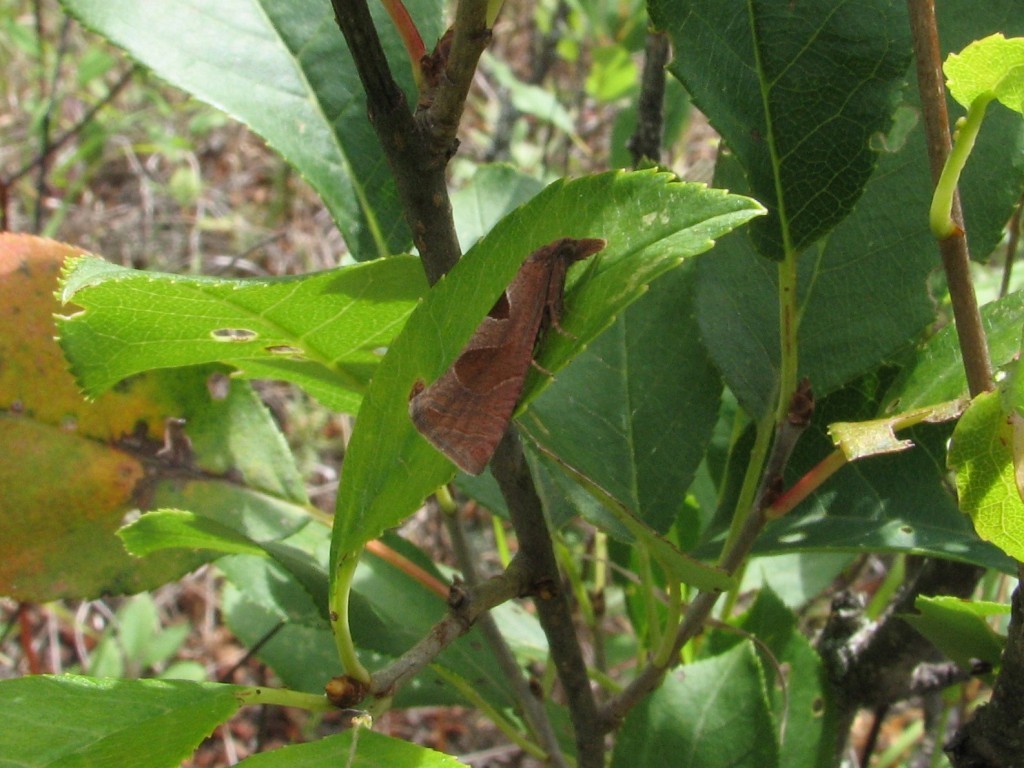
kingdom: Animalia
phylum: Arthropoda
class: Insecta
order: Lepidoptera
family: Tortricidae
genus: Pelochrista
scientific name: Pelochrista dorsisignatana
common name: Triangle-backed pelochrista moth
